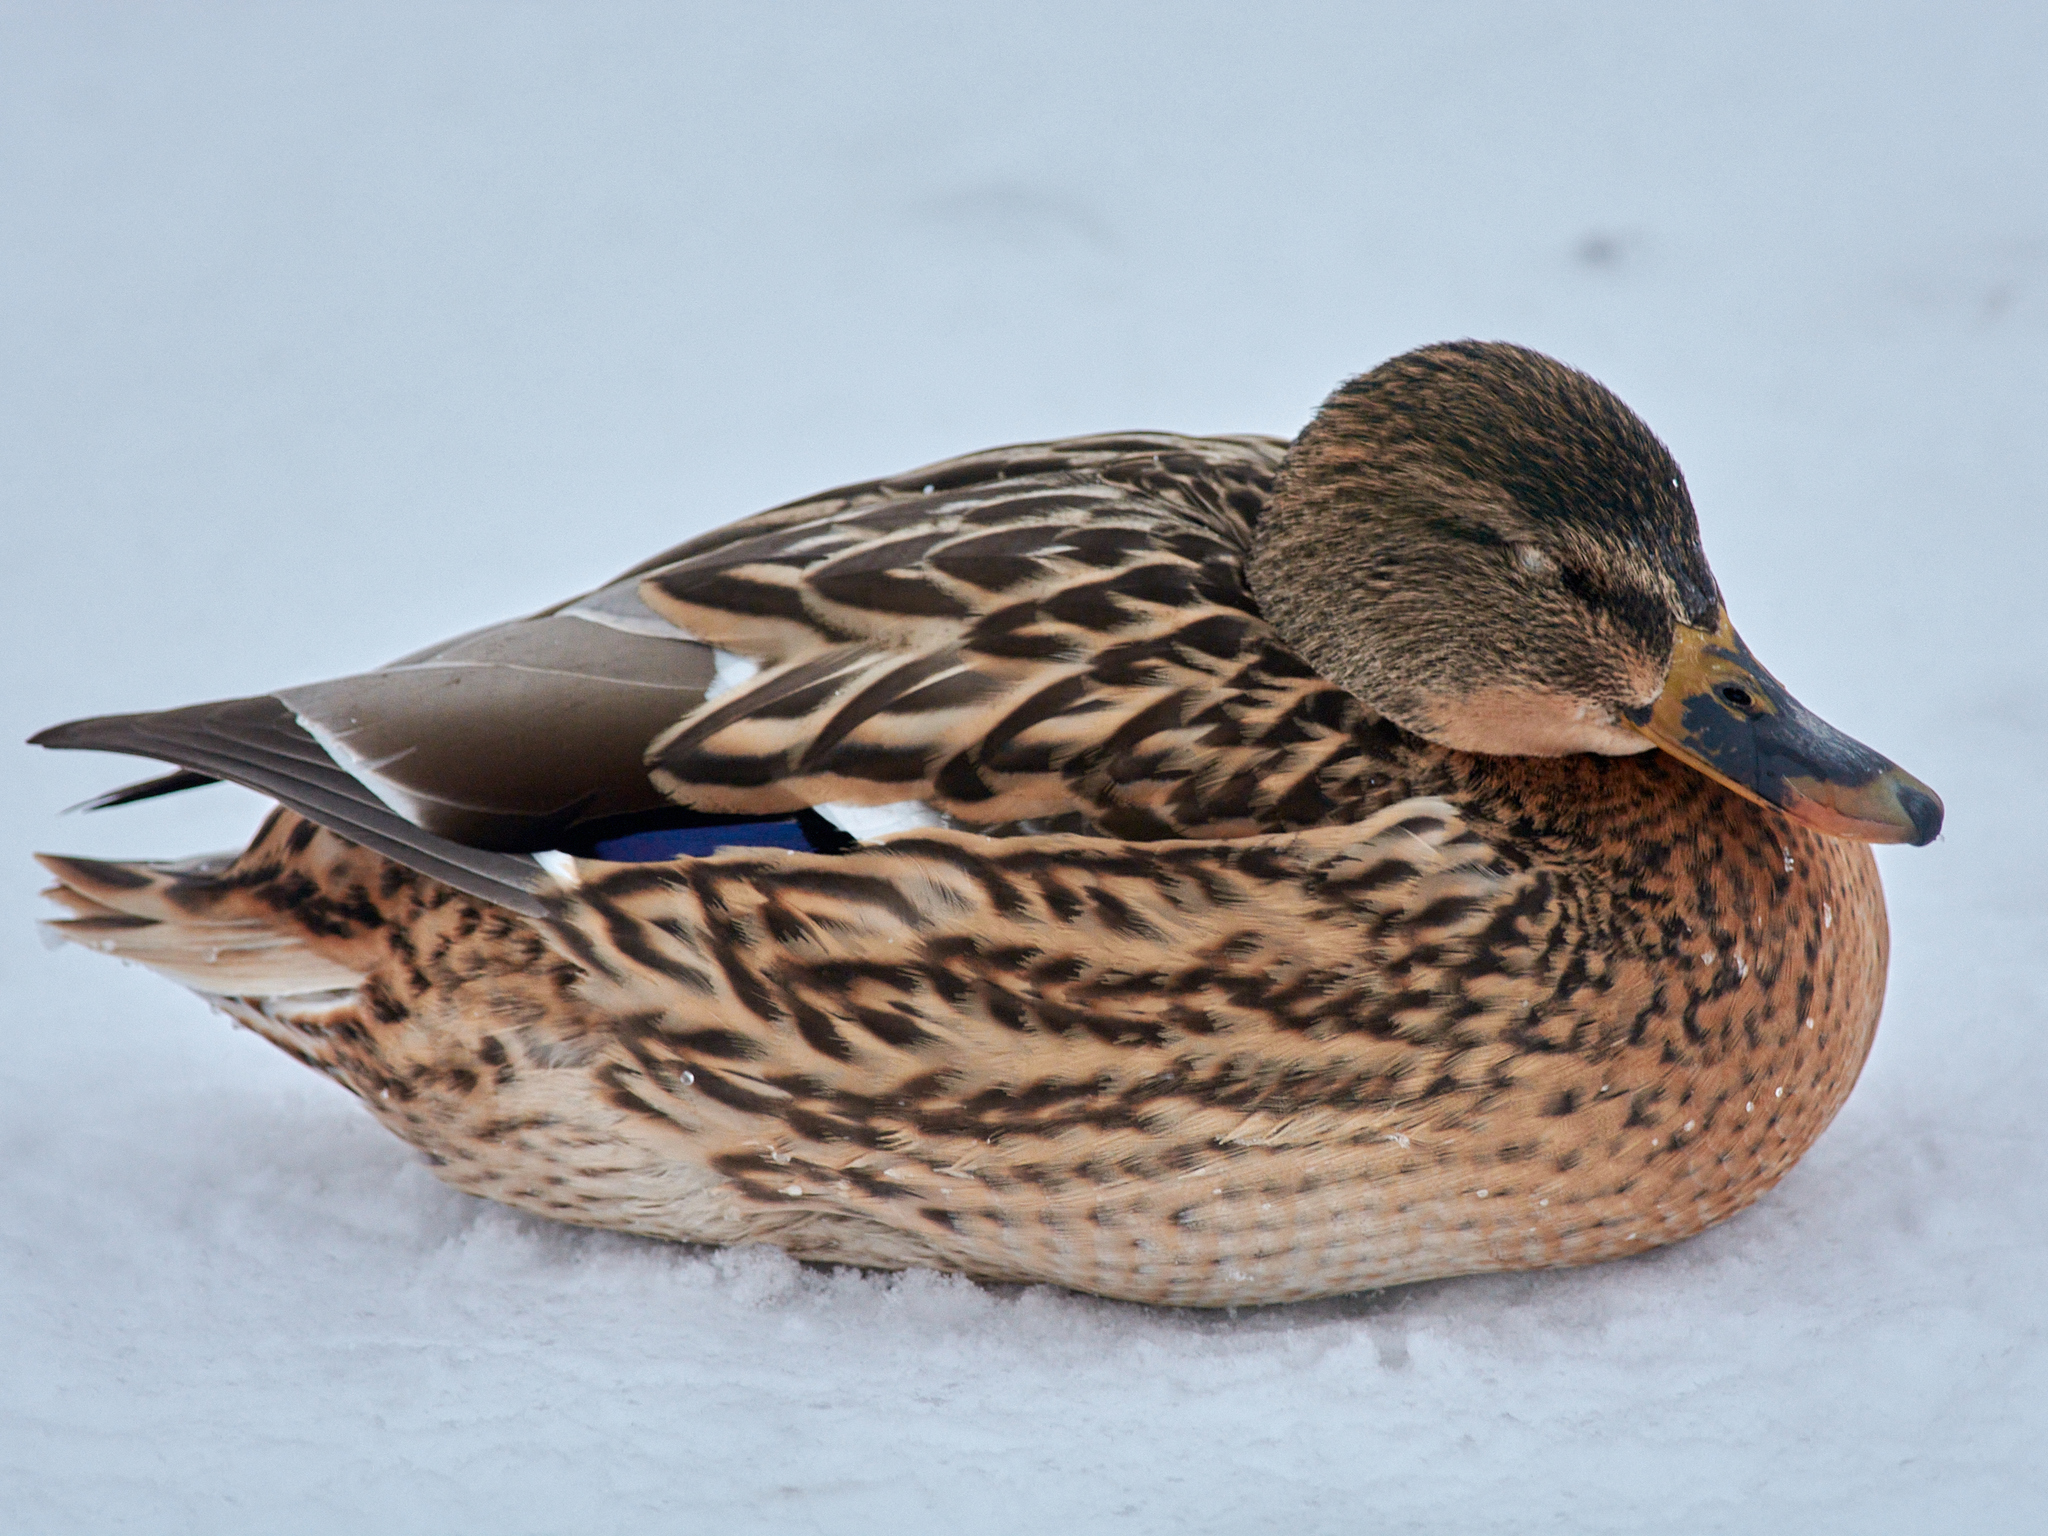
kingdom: Animalia
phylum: Chordata
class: Aves
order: Anseriformes
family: Anatidae
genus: Anas
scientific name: Anas platyrhynchos
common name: Mallard
